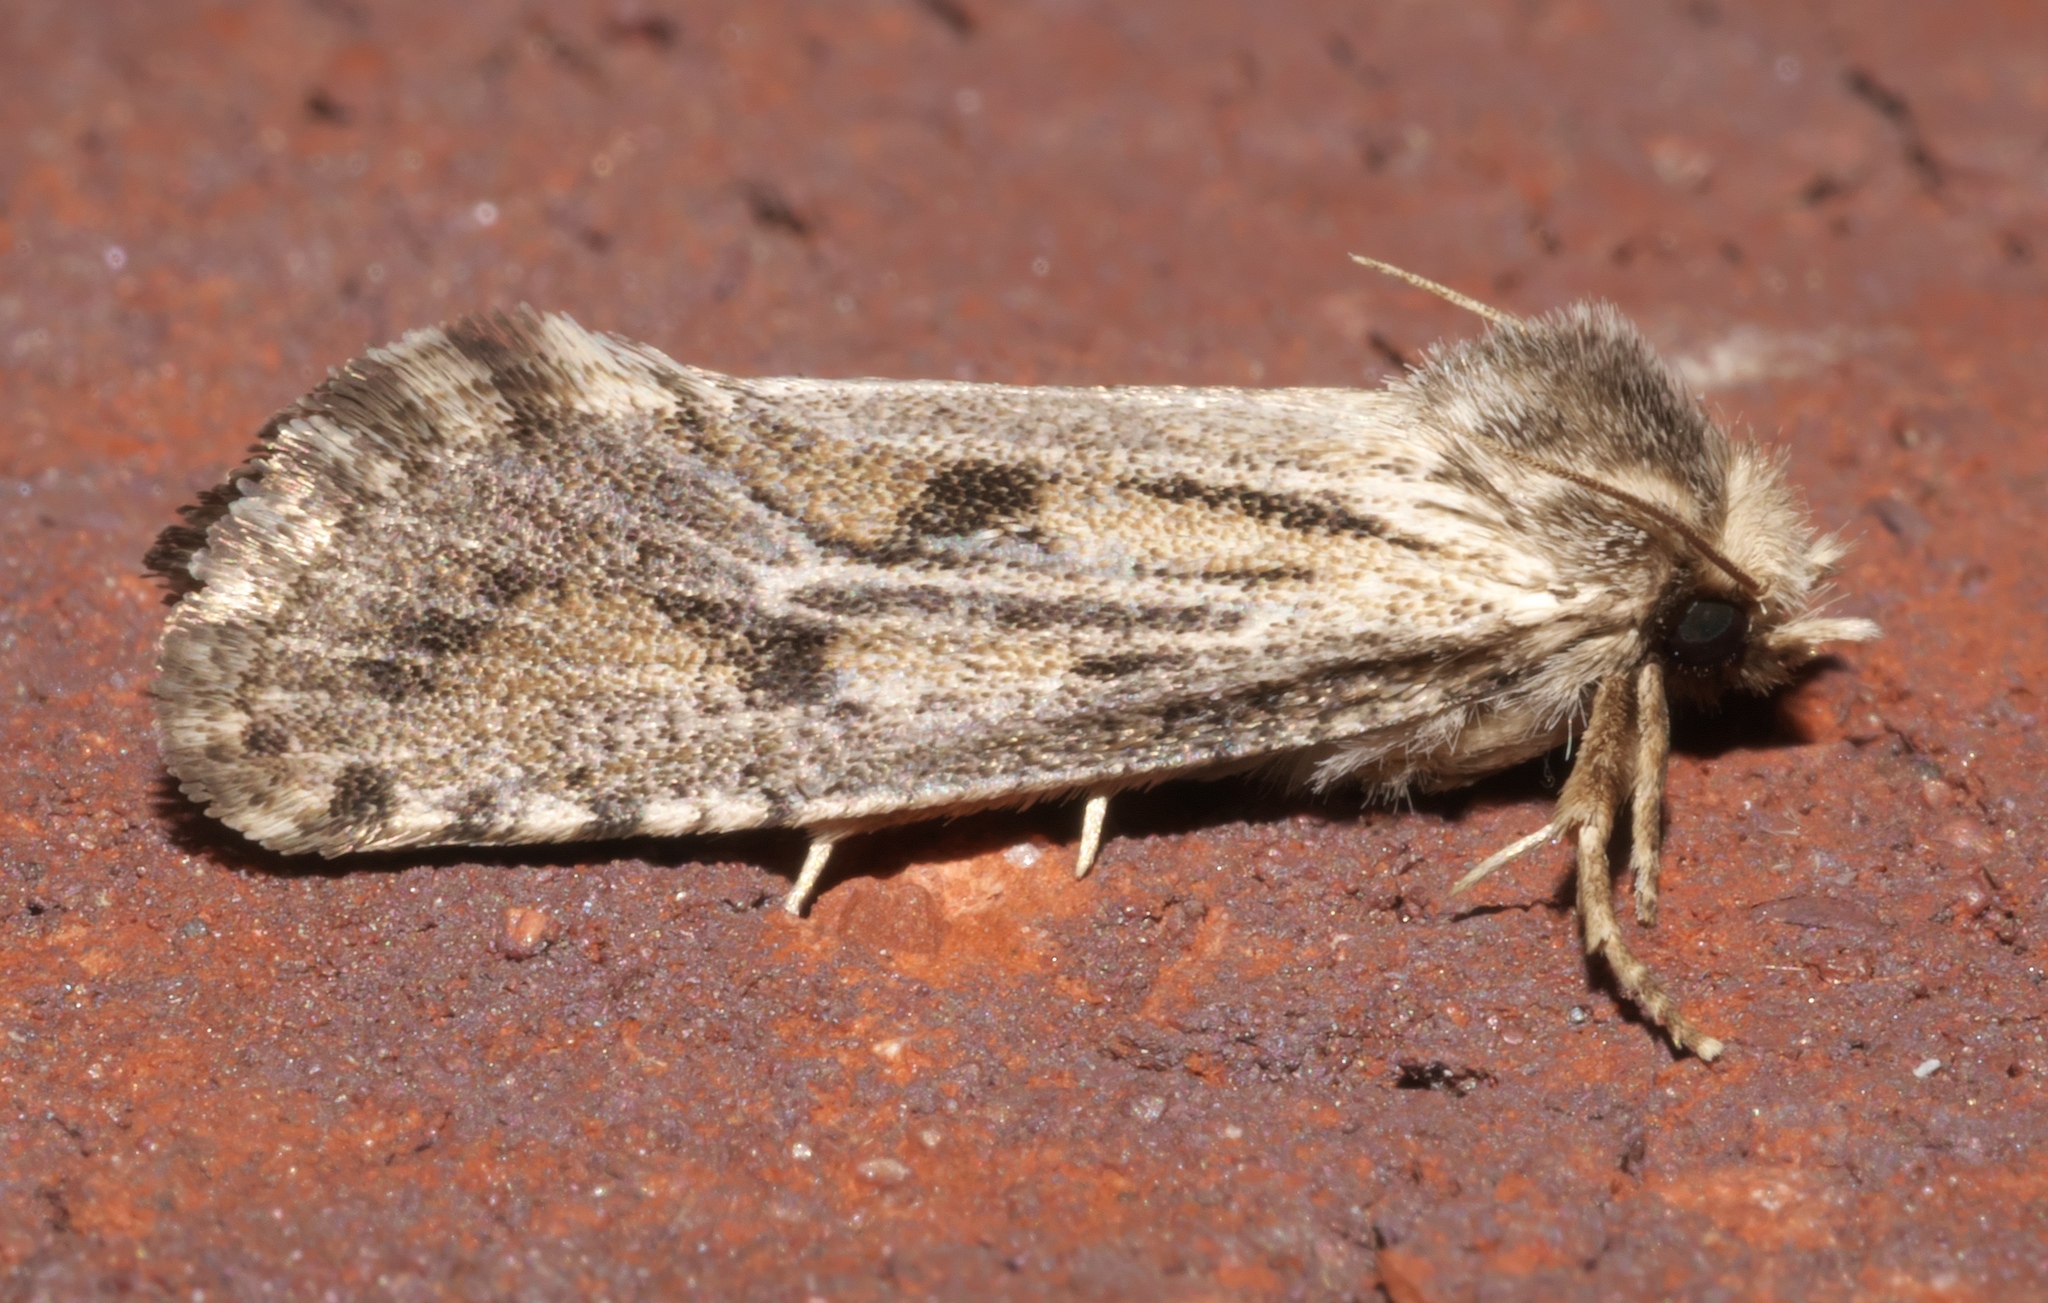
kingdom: Animalia
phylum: Arthropoda
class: Insecta
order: Lepidoptera
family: Tineidae
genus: Acrolophus
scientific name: Acrolophus popeanella
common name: Clemens' grass tubeworm moth
